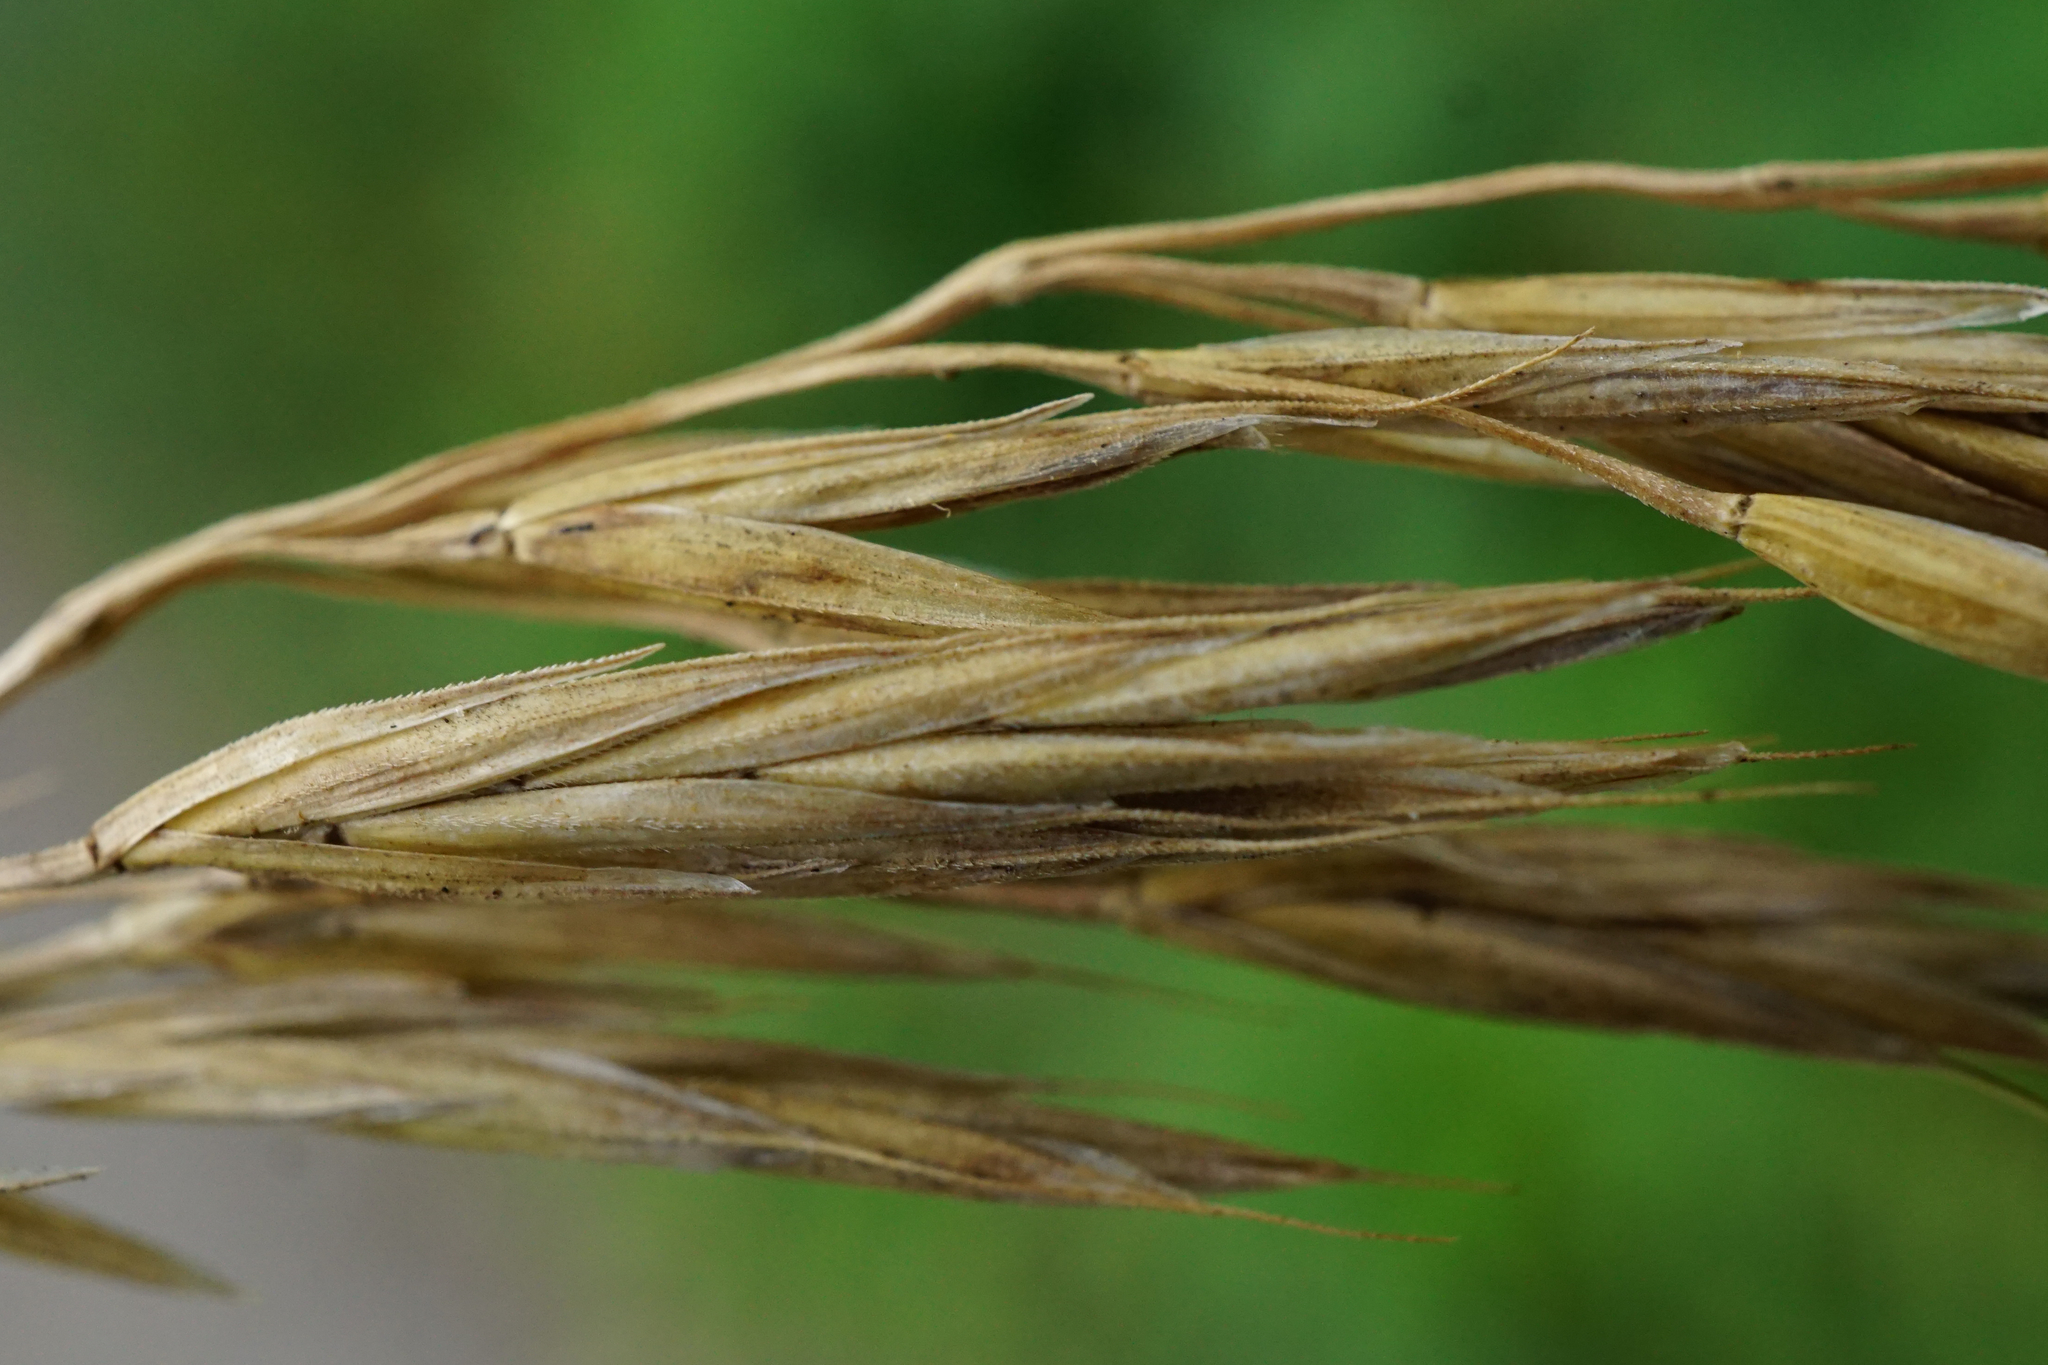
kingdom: Plantae
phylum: Tracheophyta
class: Liliopsida
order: Poales
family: Poaceae
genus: Bromus
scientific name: Bromus erectus
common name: Erect brome
